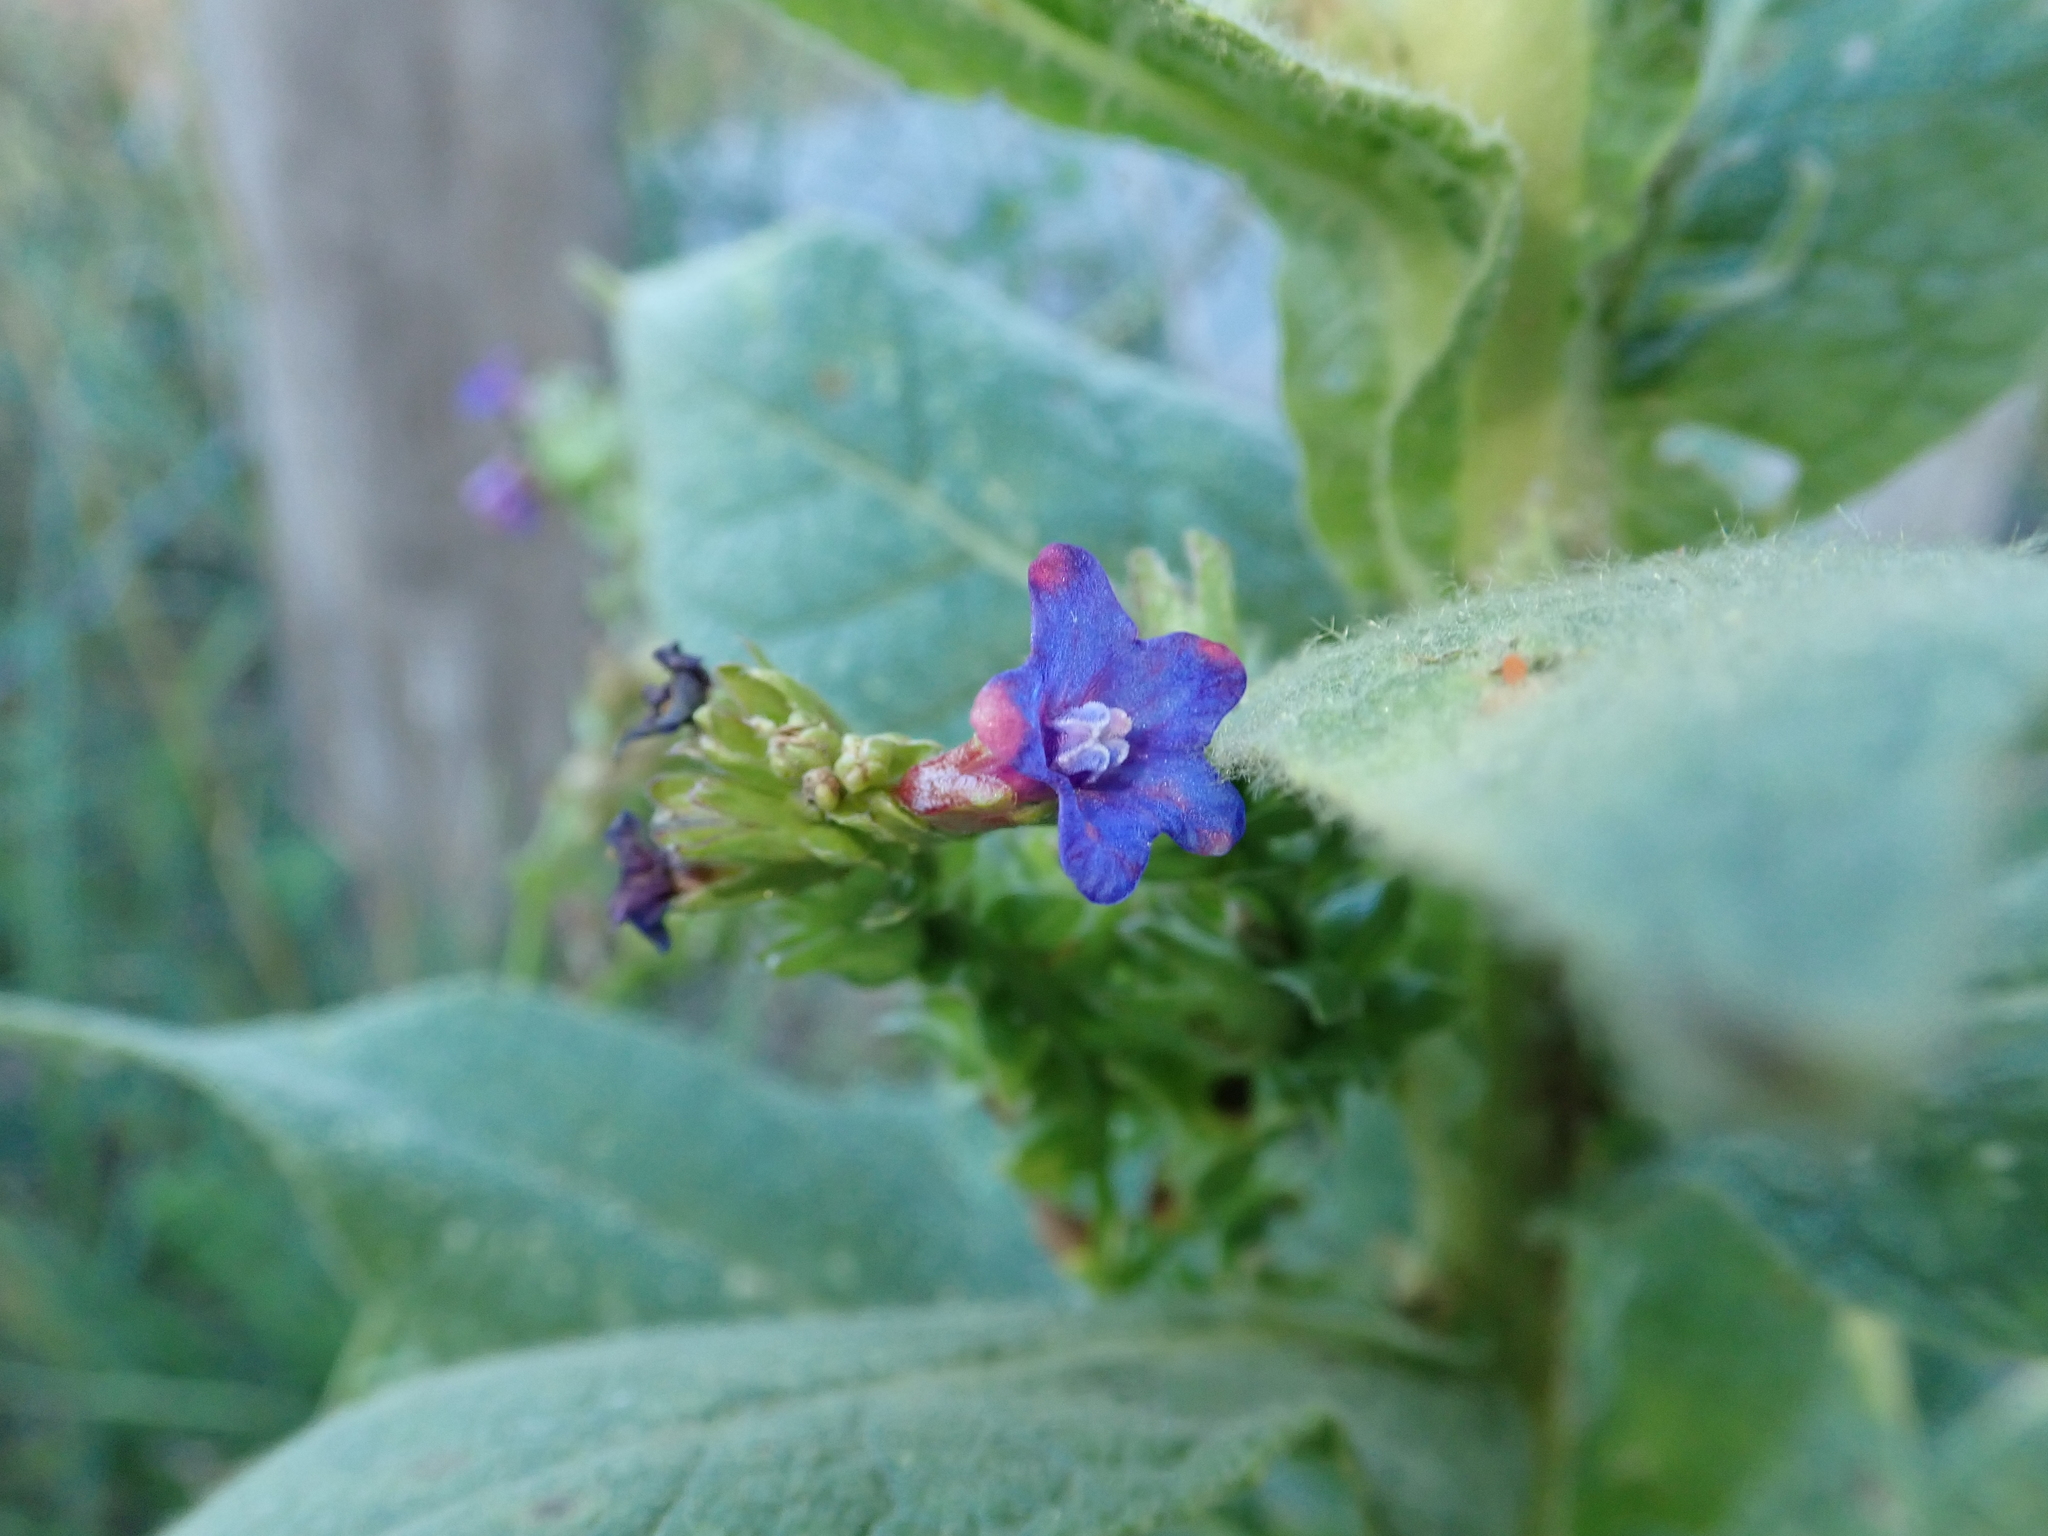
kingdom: Plantae
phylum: Tracheophyta
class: Magnoliopsida
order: Boraginales
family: Boraginaceae
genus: Anchusa
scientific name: Anchusa officinalis
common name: Alkanet
